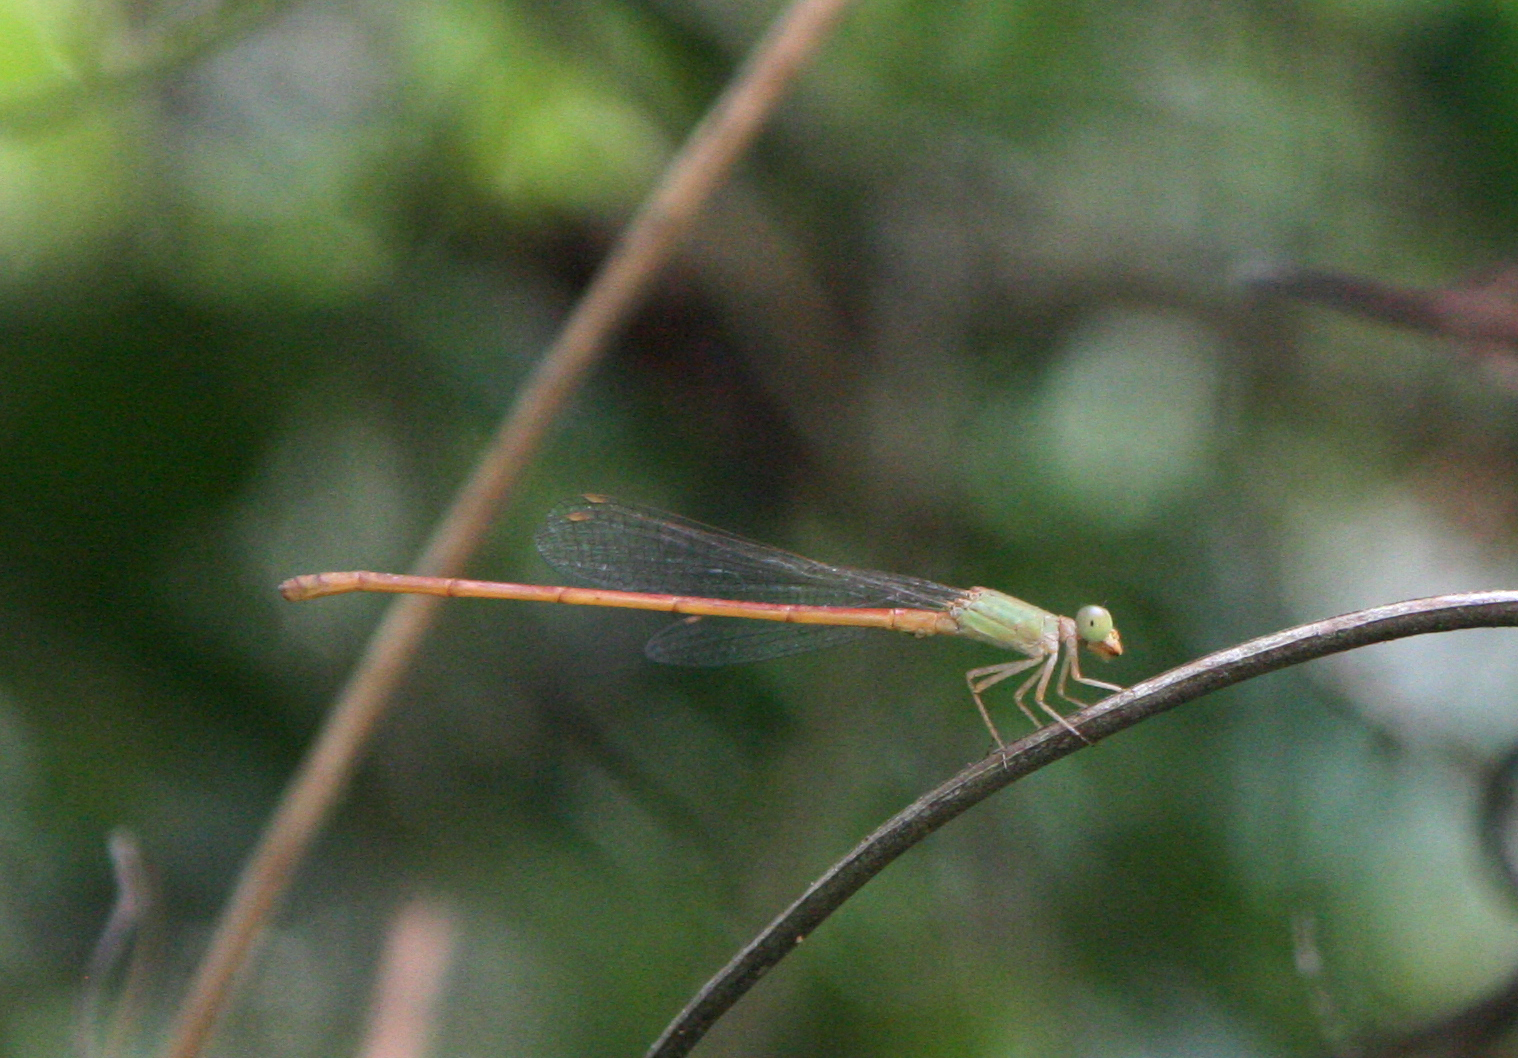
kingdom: Animalia
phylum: Arthropoda
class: Insecta
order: Odonata
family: Coenagrionidae
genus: Ceriagrion
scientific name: Ceriagrion olivaceum
